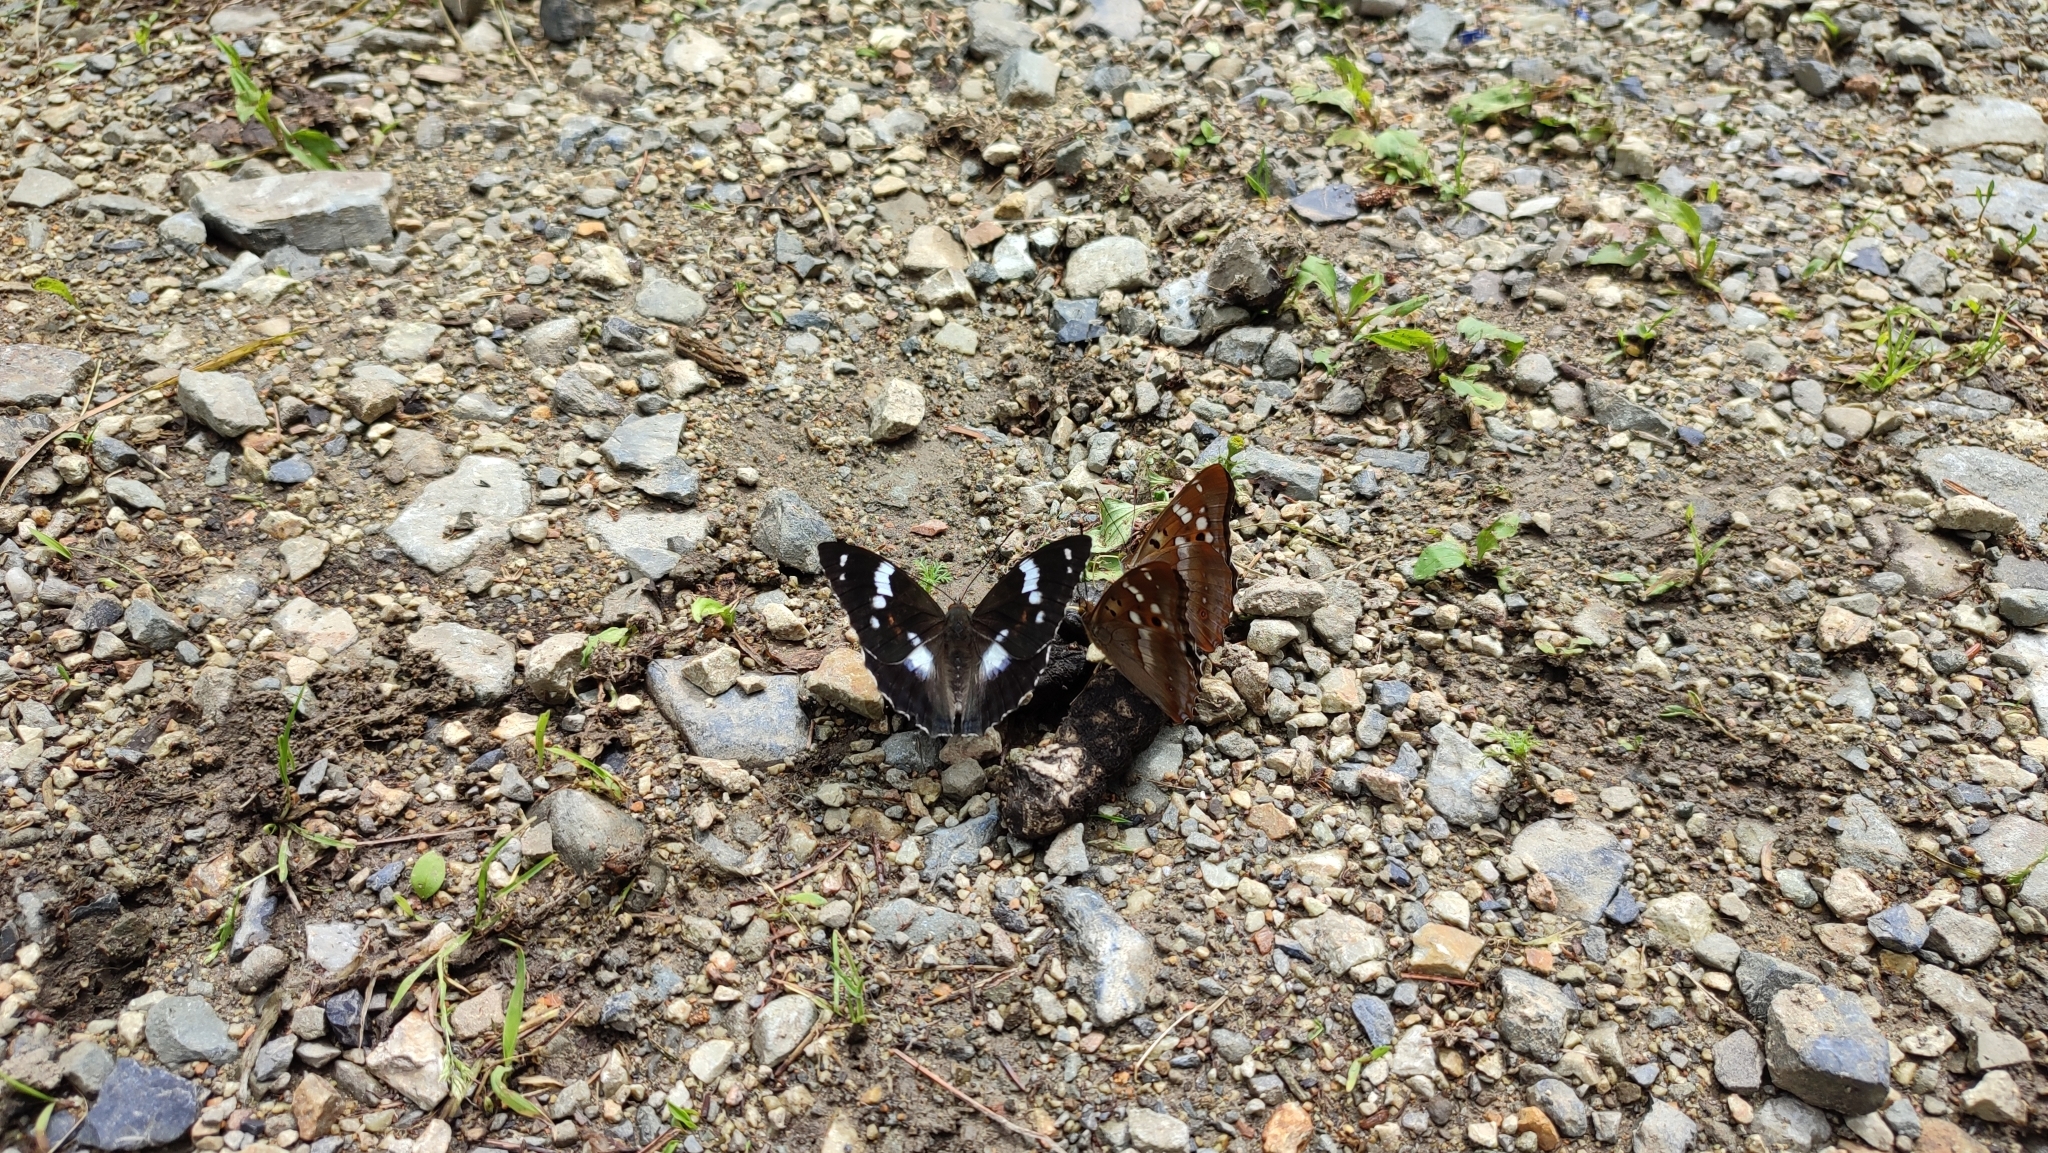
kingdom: Animalia
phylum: Arthropoda
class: Insecta
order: Lepidoptera
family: Nymphalidae
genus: Apatura
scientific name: Apatura Mimathyma schrencki
